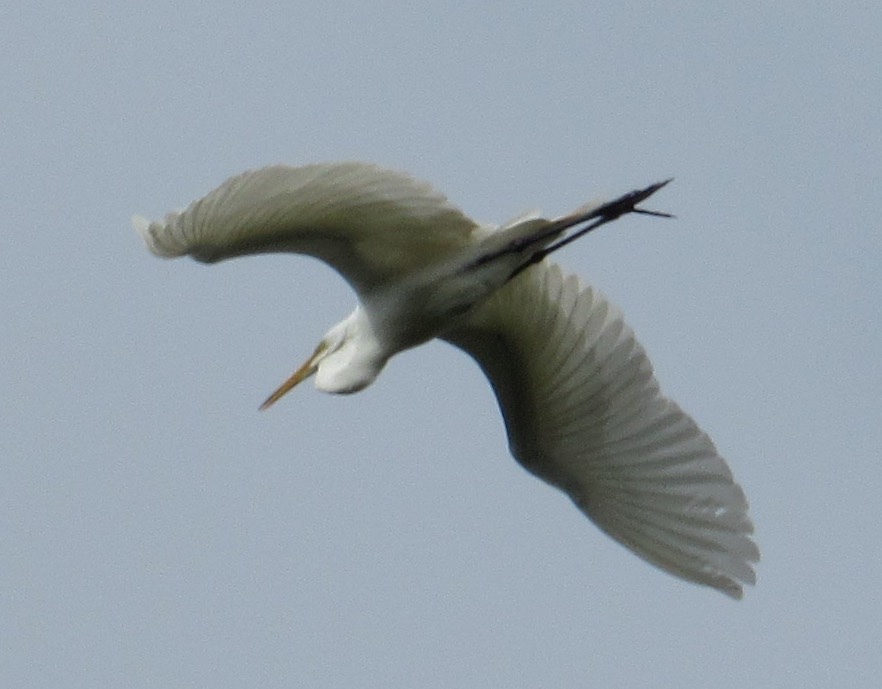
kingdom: Animalia
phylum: Chordata
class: Aves
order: Pelecaniformes
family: Ardeidae
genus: Ardea
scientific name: Ardea alba
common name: Great egret
